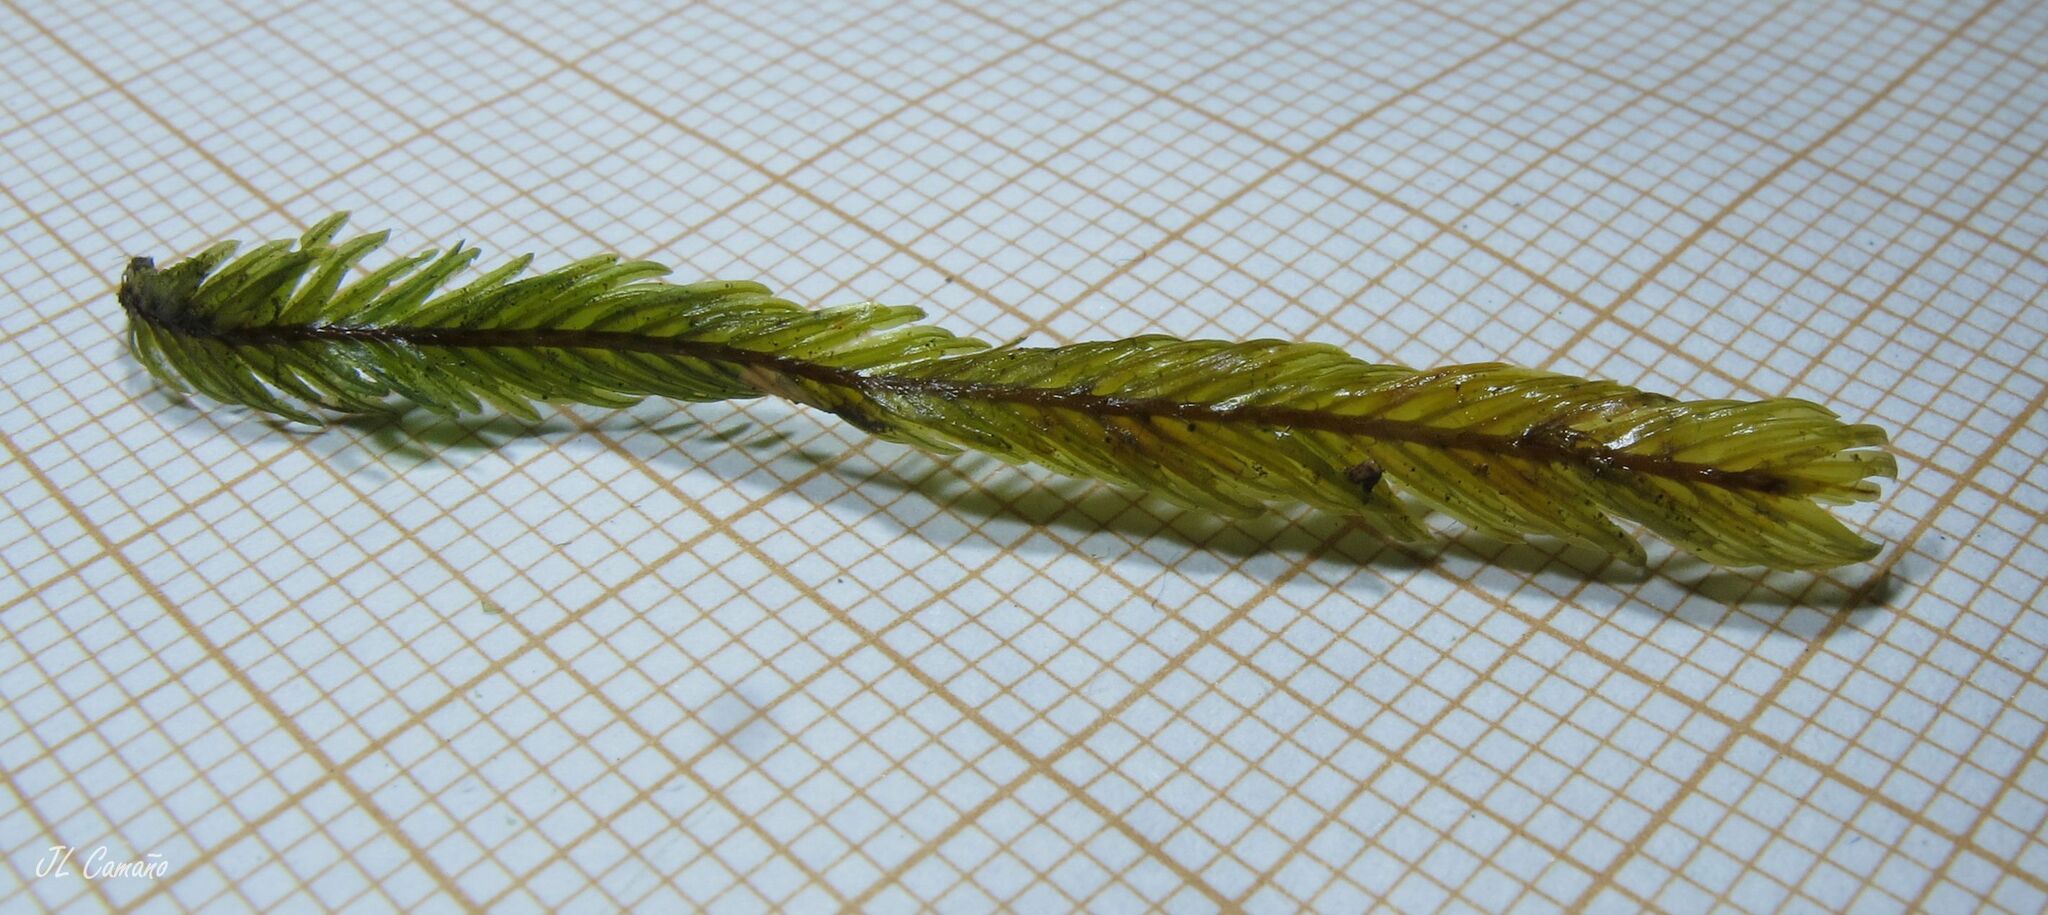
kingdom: Plantae
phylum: Bryophyta
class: Bryopsida
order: Dicranales
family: Fissidentaceae
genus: Fissidens
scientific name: Fissidens polyphyllus
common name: Many-leaved pocket-moss
